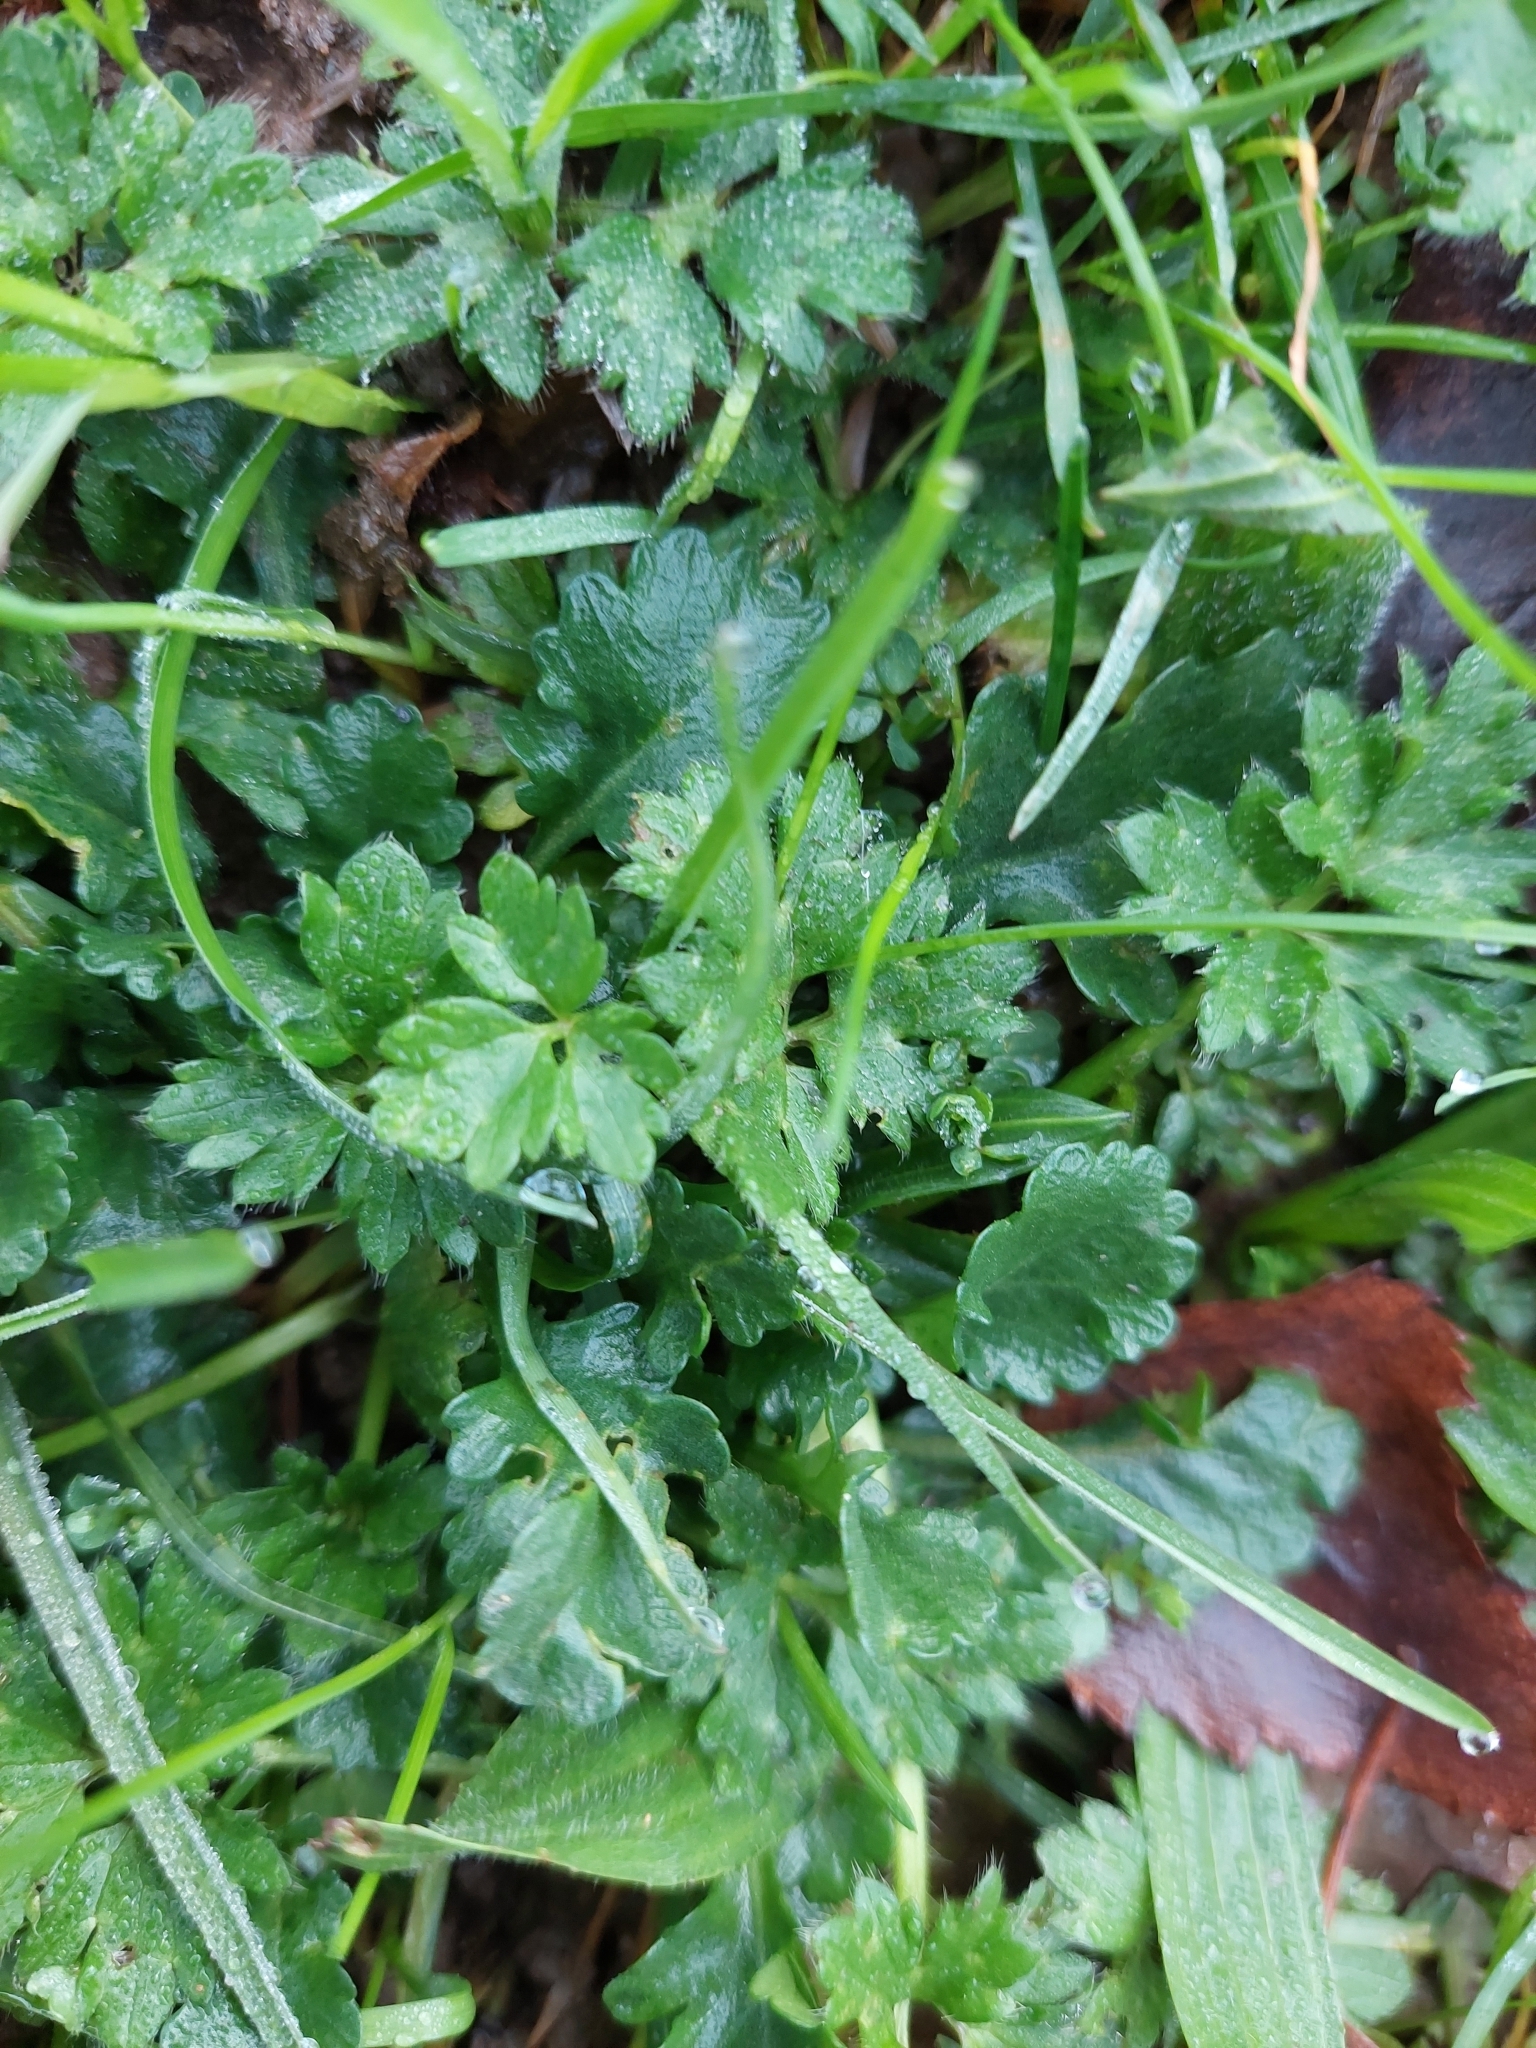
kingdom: Plantae
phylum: Tracheophyta
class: Magnoliopsida
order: Ranunculales
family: Ranunculaceae
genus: Ranunculus
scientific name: Ranunculus repens
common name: Creeping buttercup
